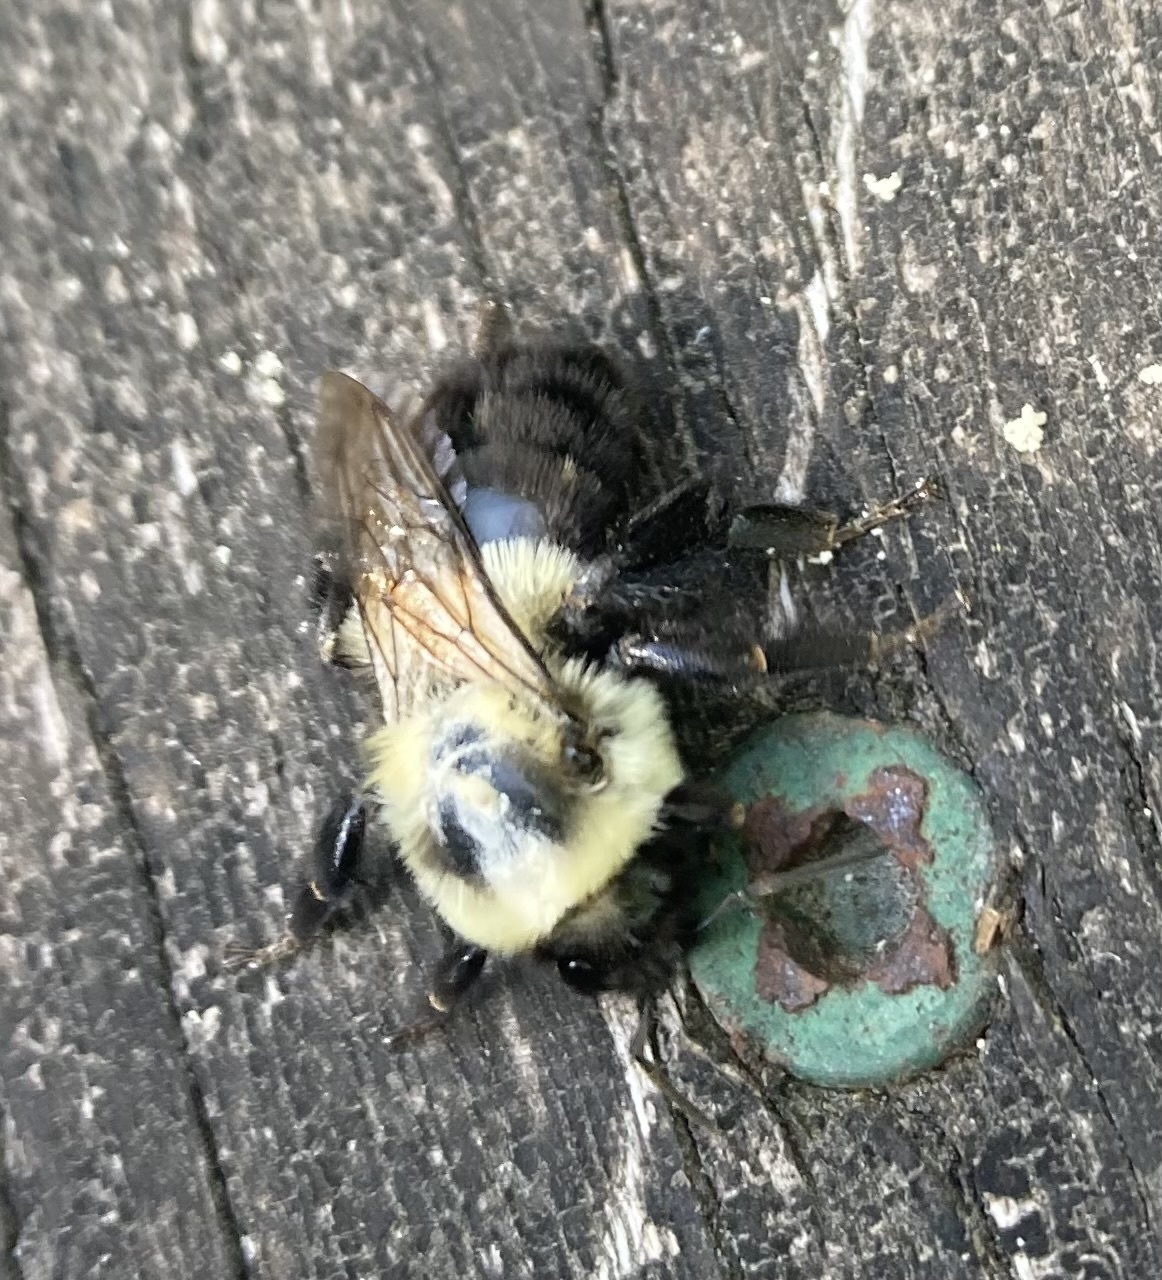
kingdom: Animalia
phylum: Arthropoda
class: Insecta
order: Hymenoptera
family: Apidae
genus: Bombus
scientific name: Bombus impatiens
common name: Common eastern bumble bee
